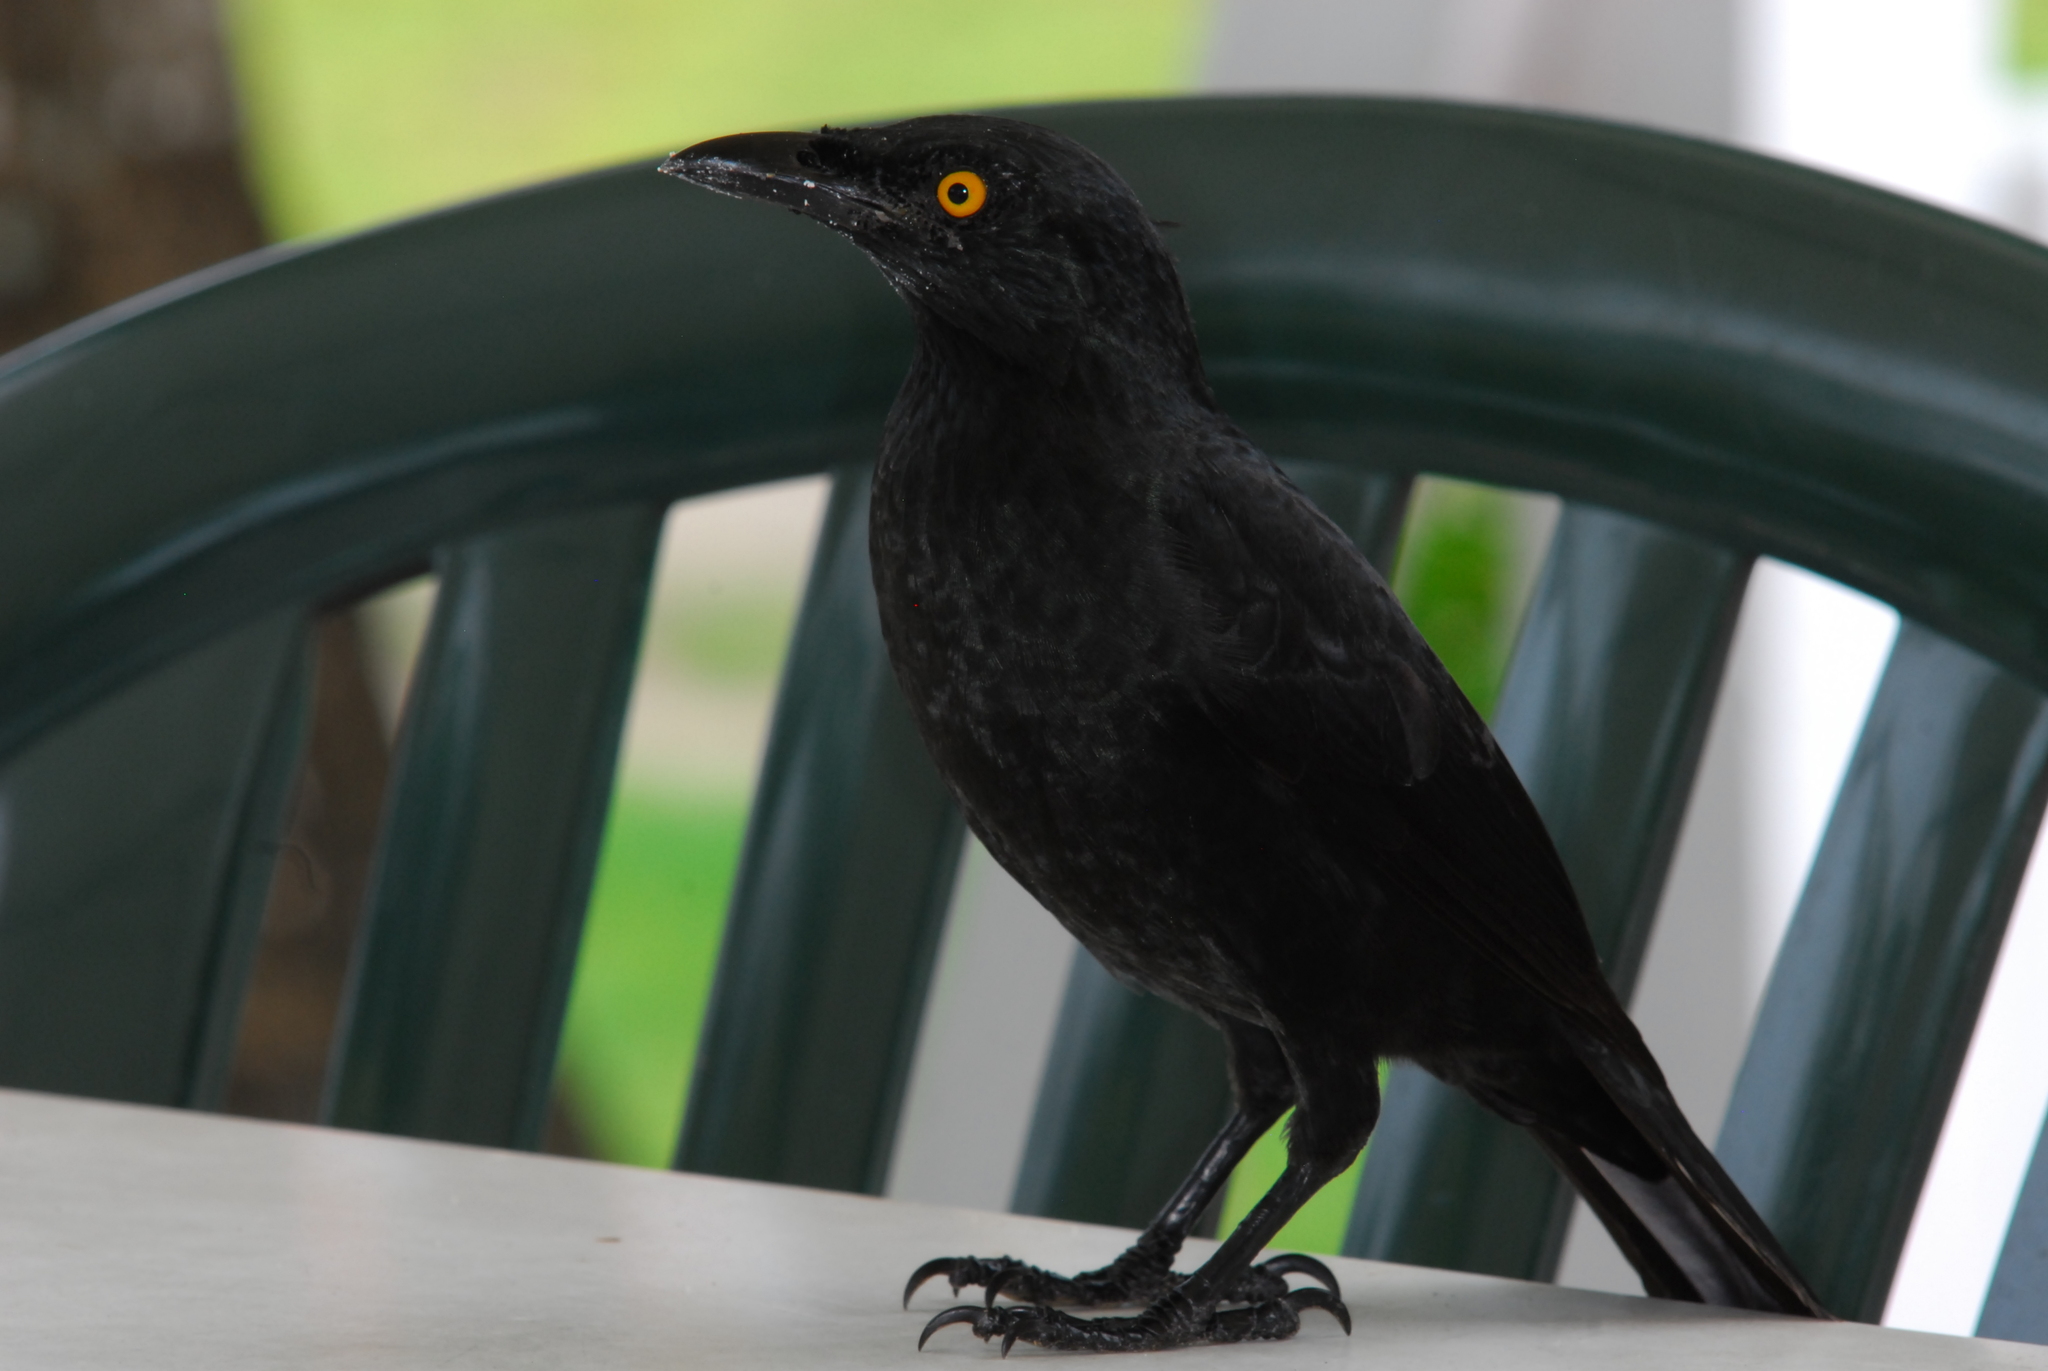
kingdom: Animalia
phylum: Chordata
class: Aves
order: Passeriformes
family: Sturnidae
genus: Aplonis
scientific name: Aplonis opaca
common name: Micronesian starling
